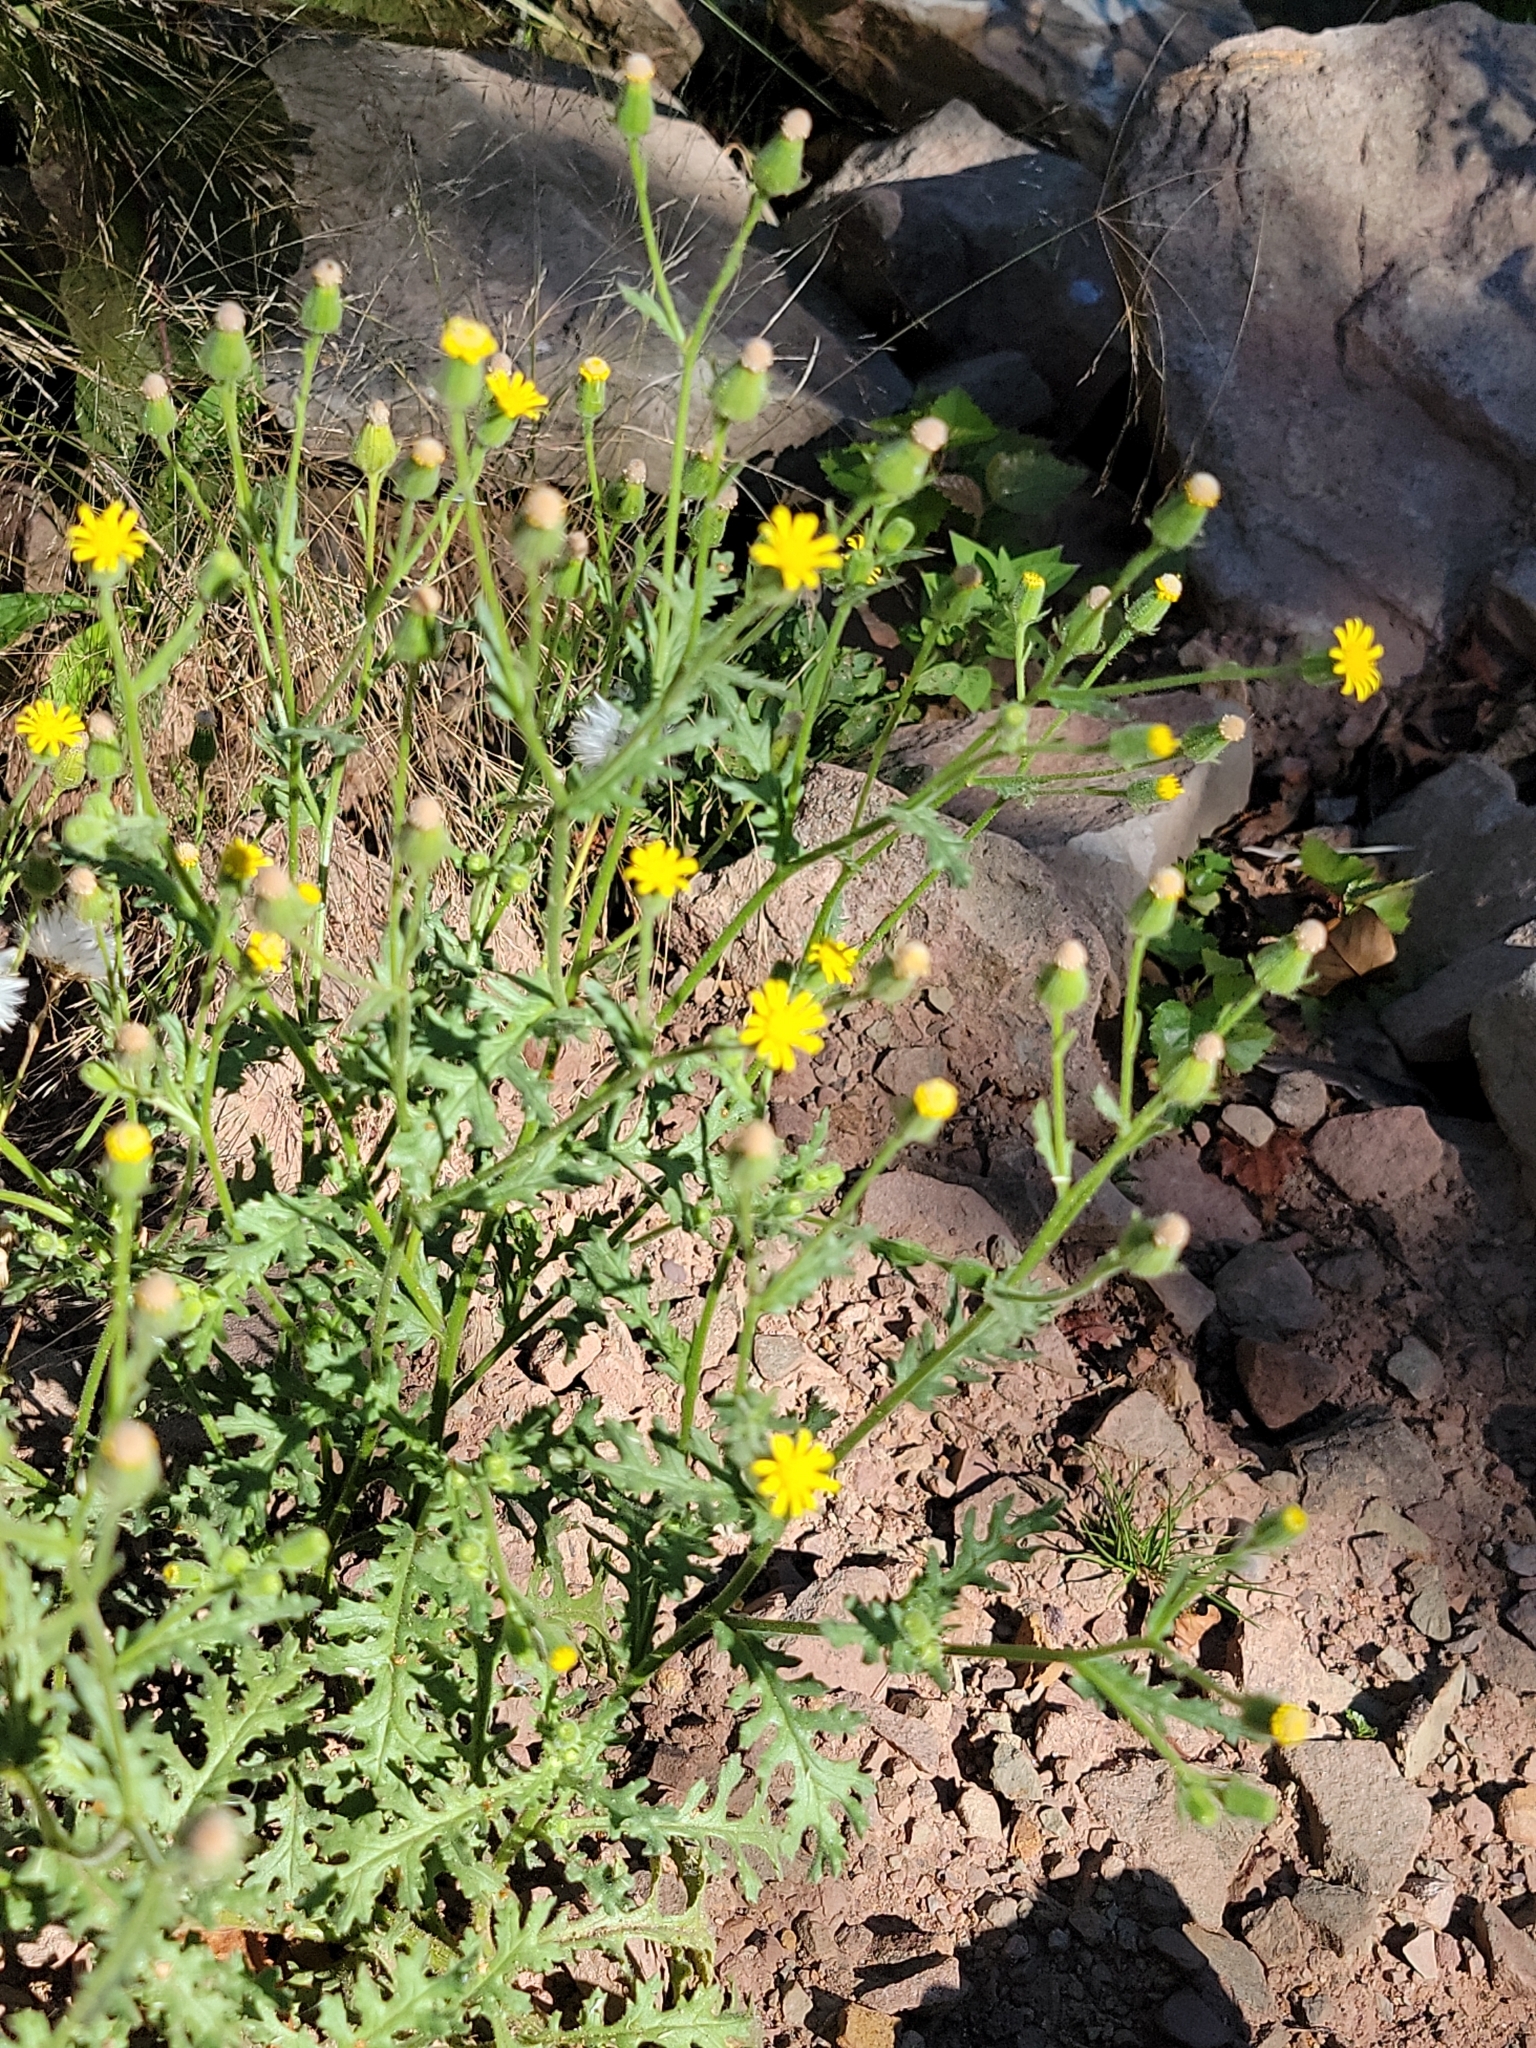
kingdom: Plantae
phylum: Tracheophyta
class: Magnoliopsida
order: Asterales
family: Asteraceae
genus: Senecio
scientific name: Senecio viscosus
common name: Sticky groundsel
